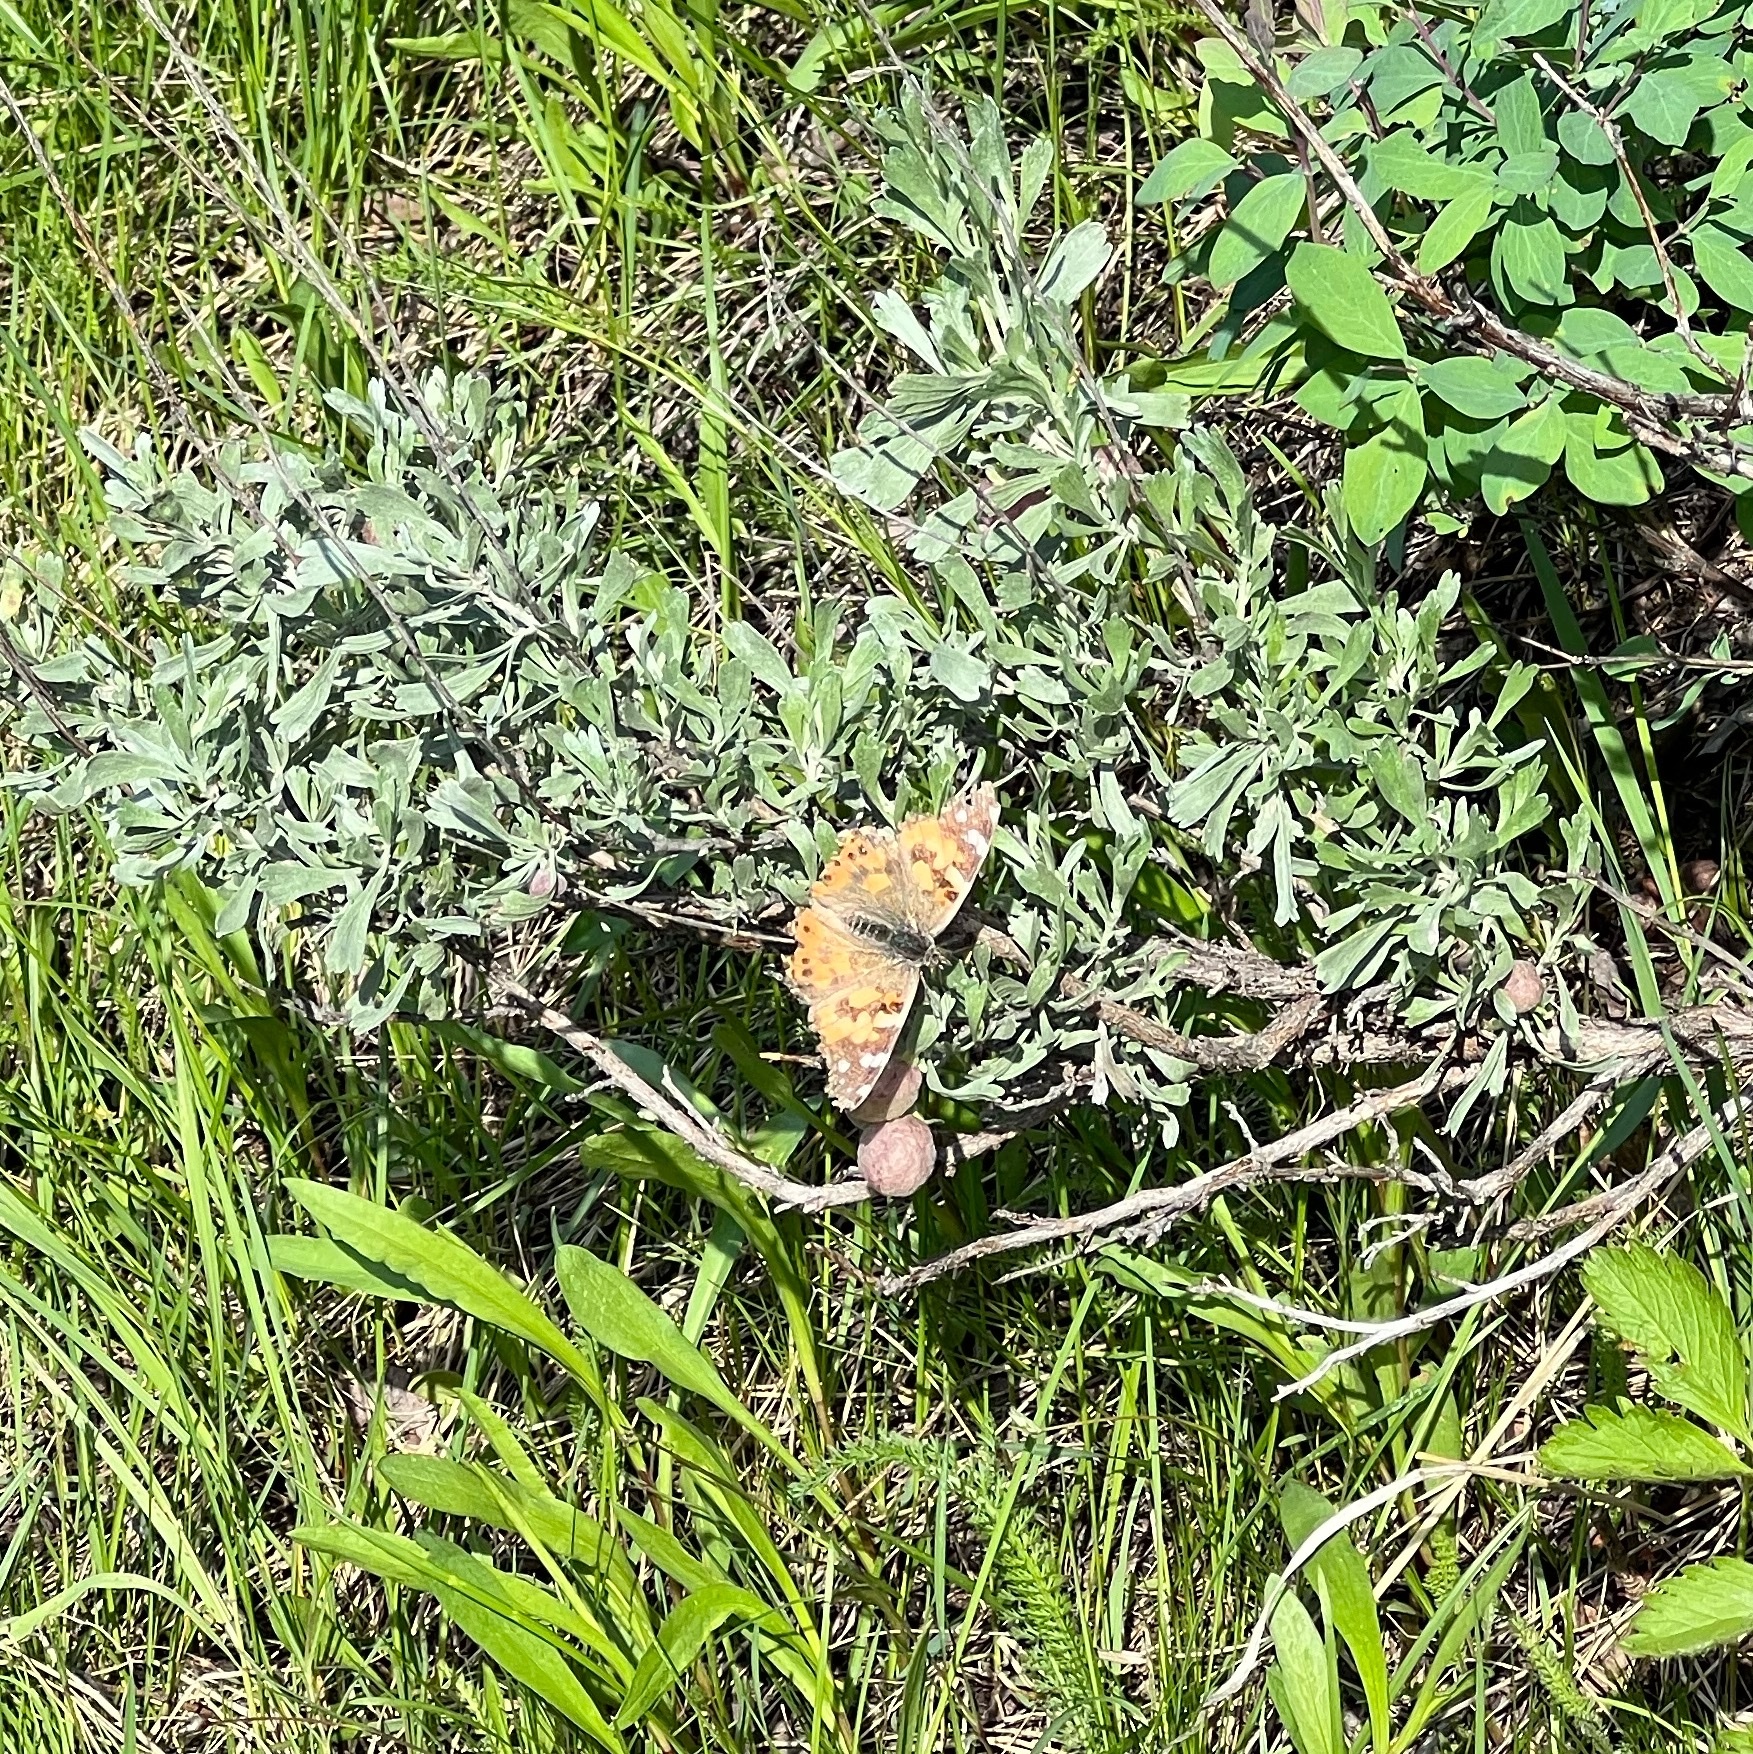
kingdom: Animalia
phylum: Arthropoda
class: Insecta
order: Lepidoptera
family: Nymphalidae
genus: Vanessa
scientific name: Vanessa cardui
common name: Painted lady
